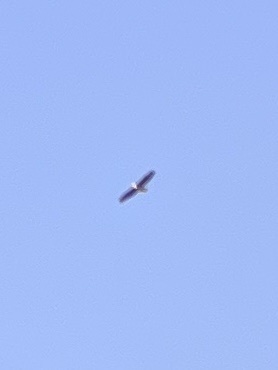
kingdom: Animalia
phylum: Chordata
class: Aves
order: Accipitriformes
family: Accipitridae
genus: Haliaeetus
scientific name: Haliaeetus leucocephalus
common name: Bald eagle
